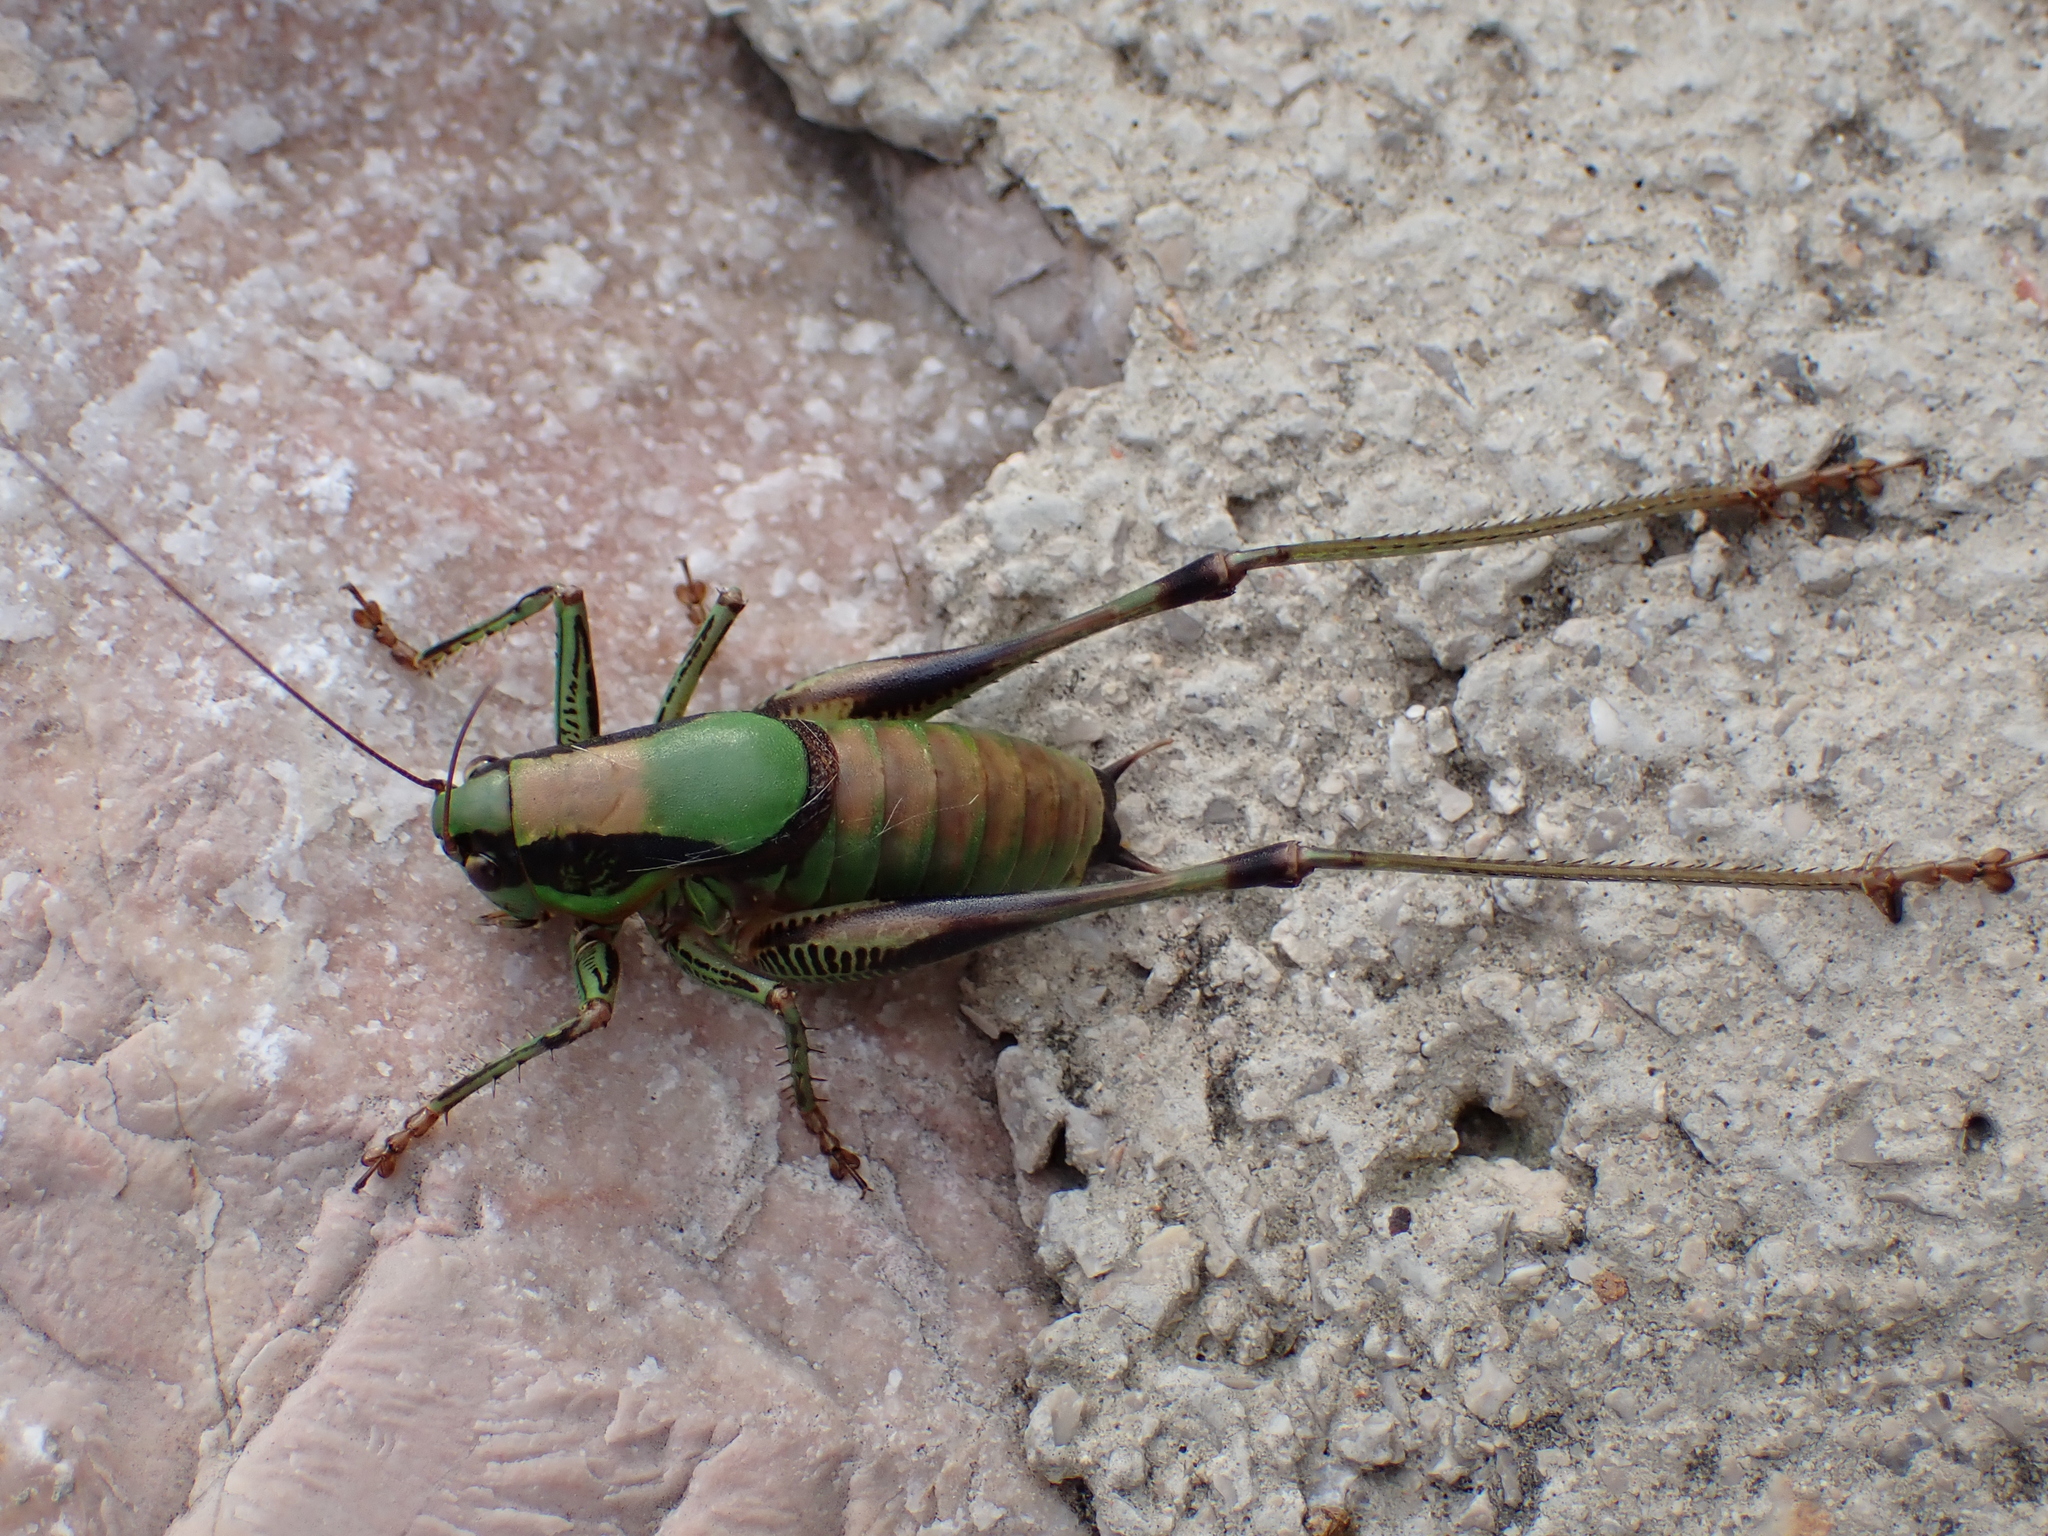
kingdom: Animalia
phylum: Arthropoda
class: Insecta
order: Orthoptera
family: Tettigoniidae
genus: Eupholidoptera
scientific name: Eupholidoptera schmidti
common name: Schmidt's marbled bush-cricket
